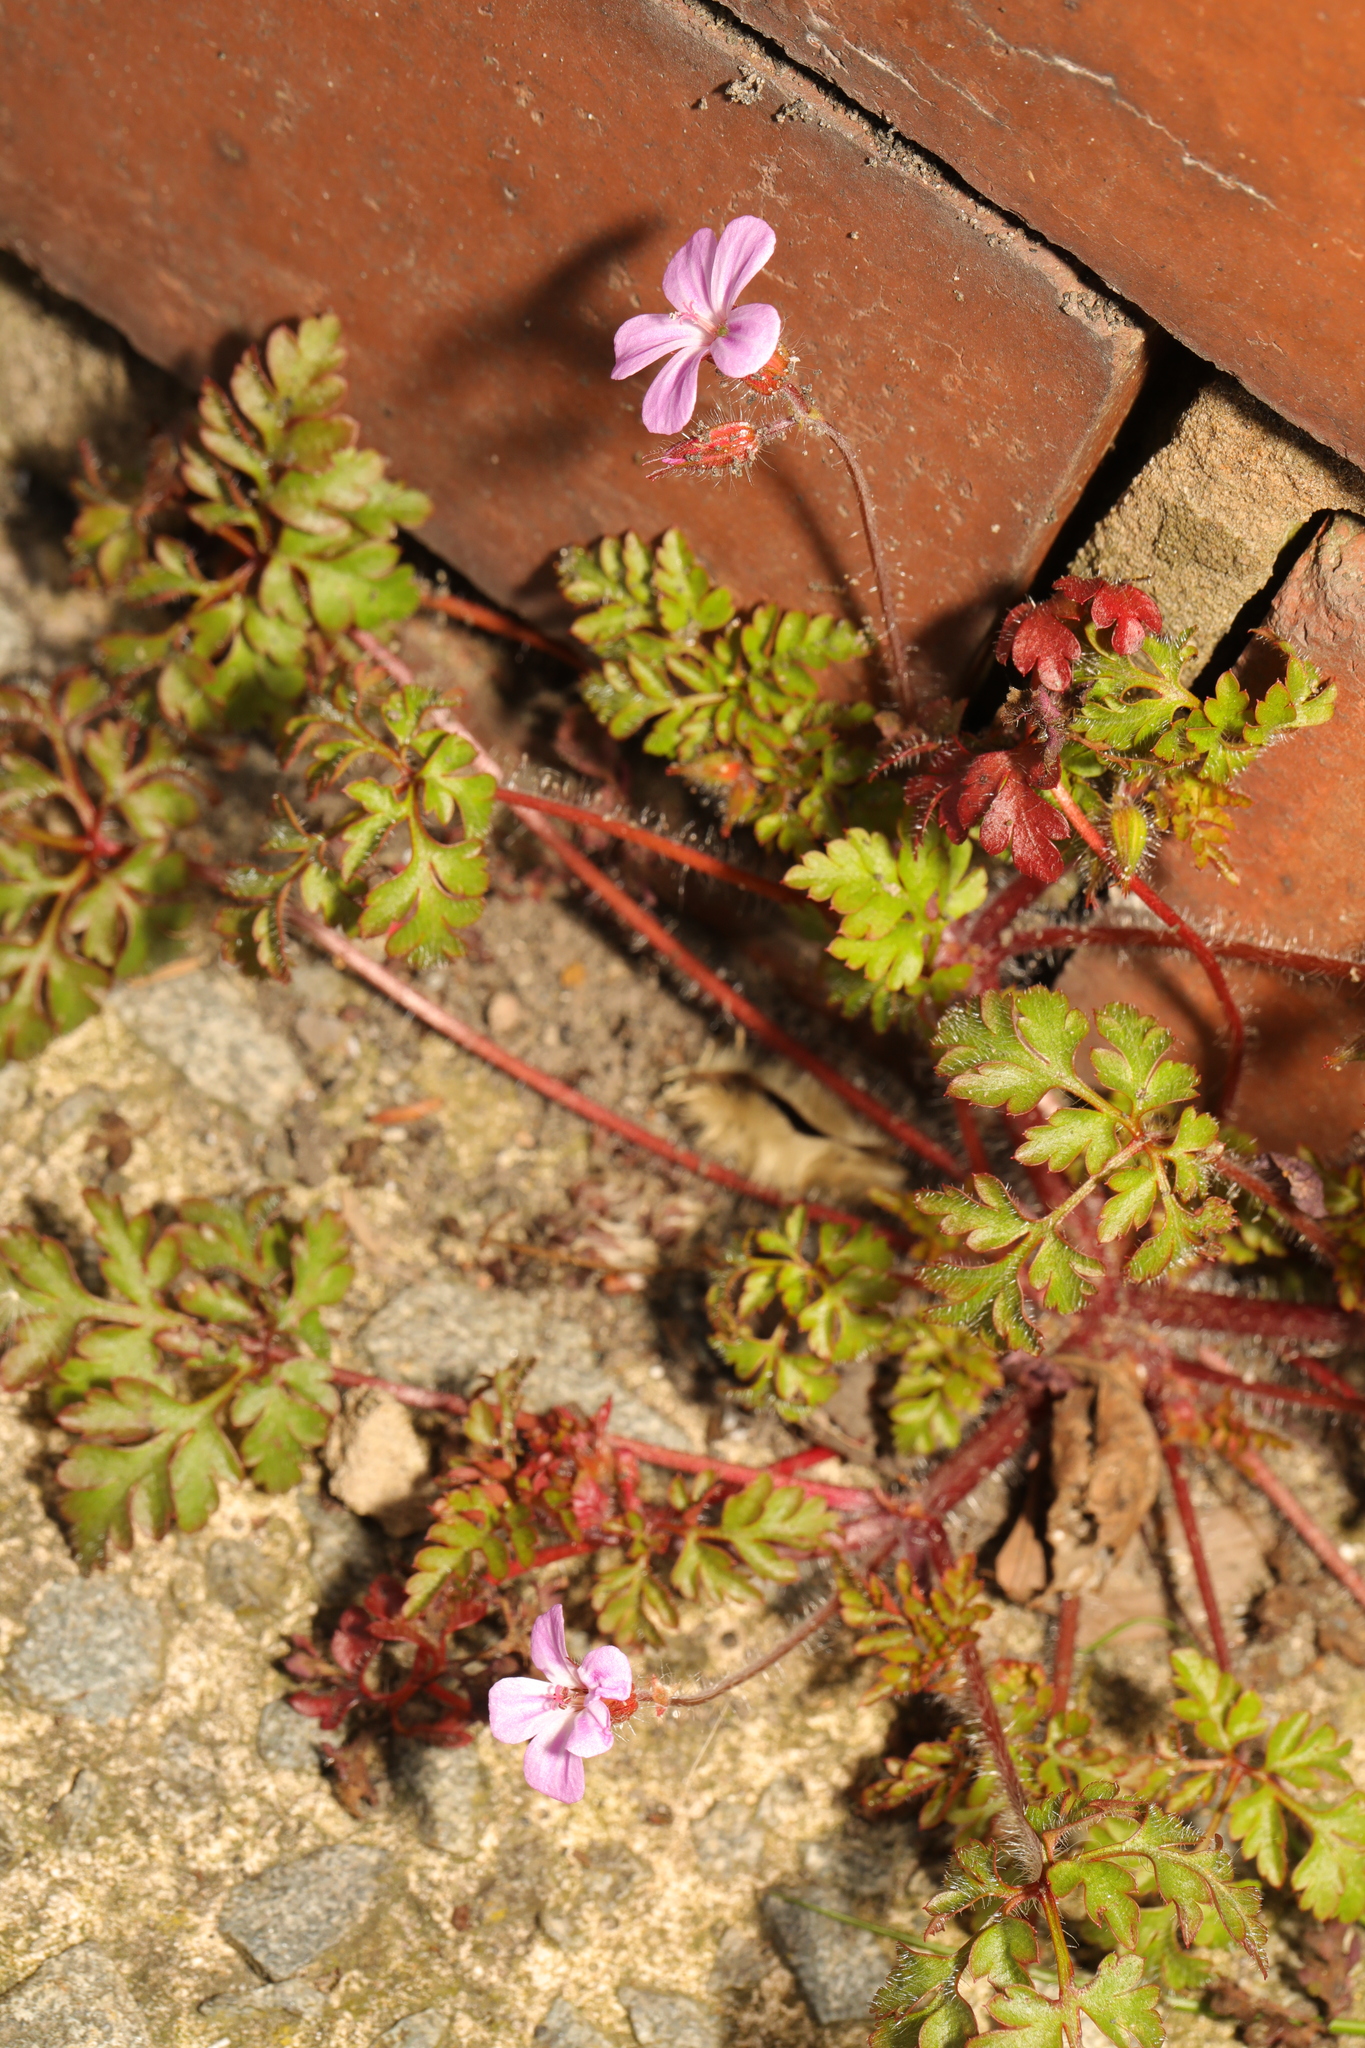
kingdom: Plantae
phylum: Tracheophyta
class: Magnoliopsida
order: Geraniales
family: Geraniaceae
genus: Geranium
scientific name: Geranium robertianum
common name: Herb-robert
